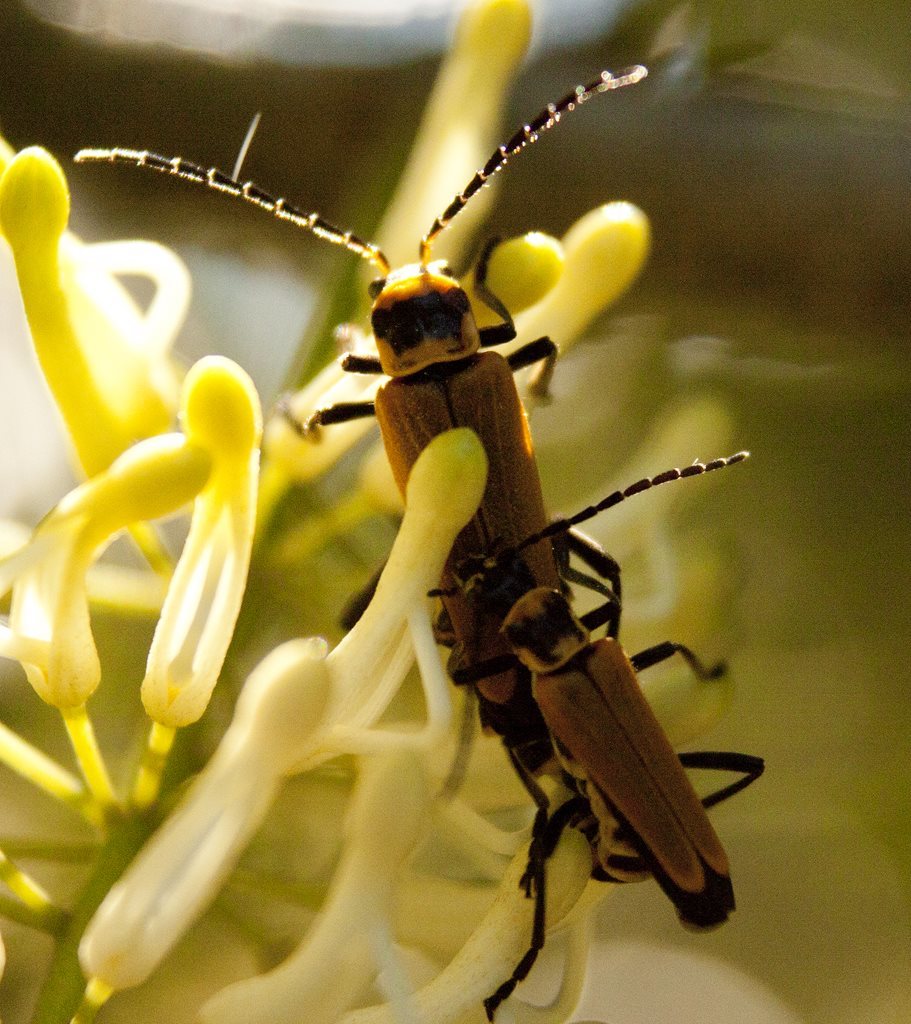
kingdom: Animalia
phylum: Arthropoda
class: Insecta
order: Coleoptera
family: Cantharidae
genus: Chauliognathus
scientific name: Chauliognathus
